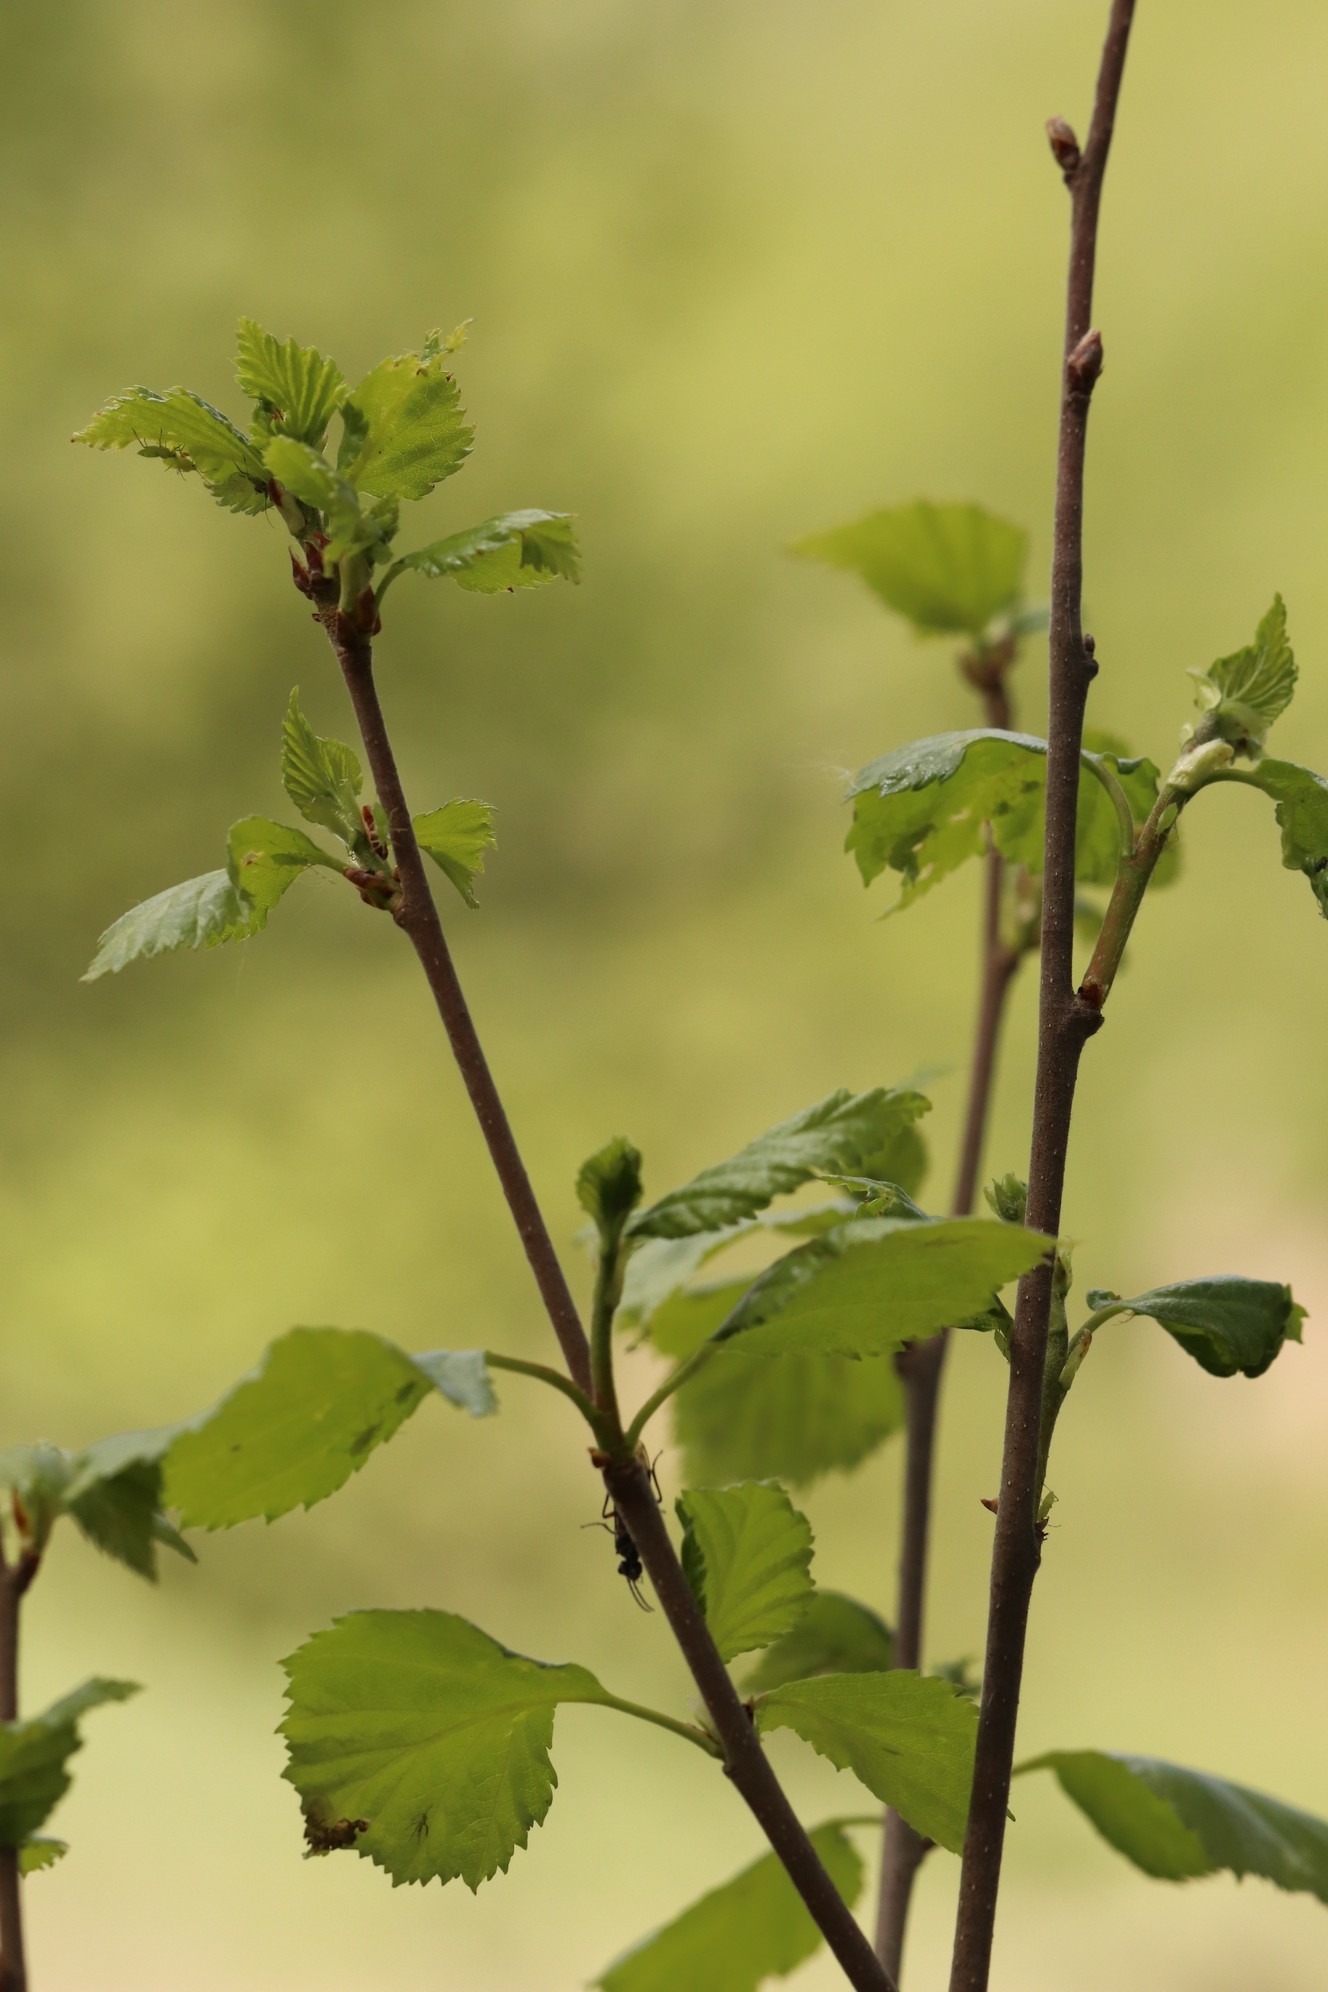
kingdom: Plantae
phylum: Tracheophyta
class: Magnoliopsida
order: Fagales
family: Betulaceae
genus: Betula
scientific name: Betula pubescens
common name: Downy birch
